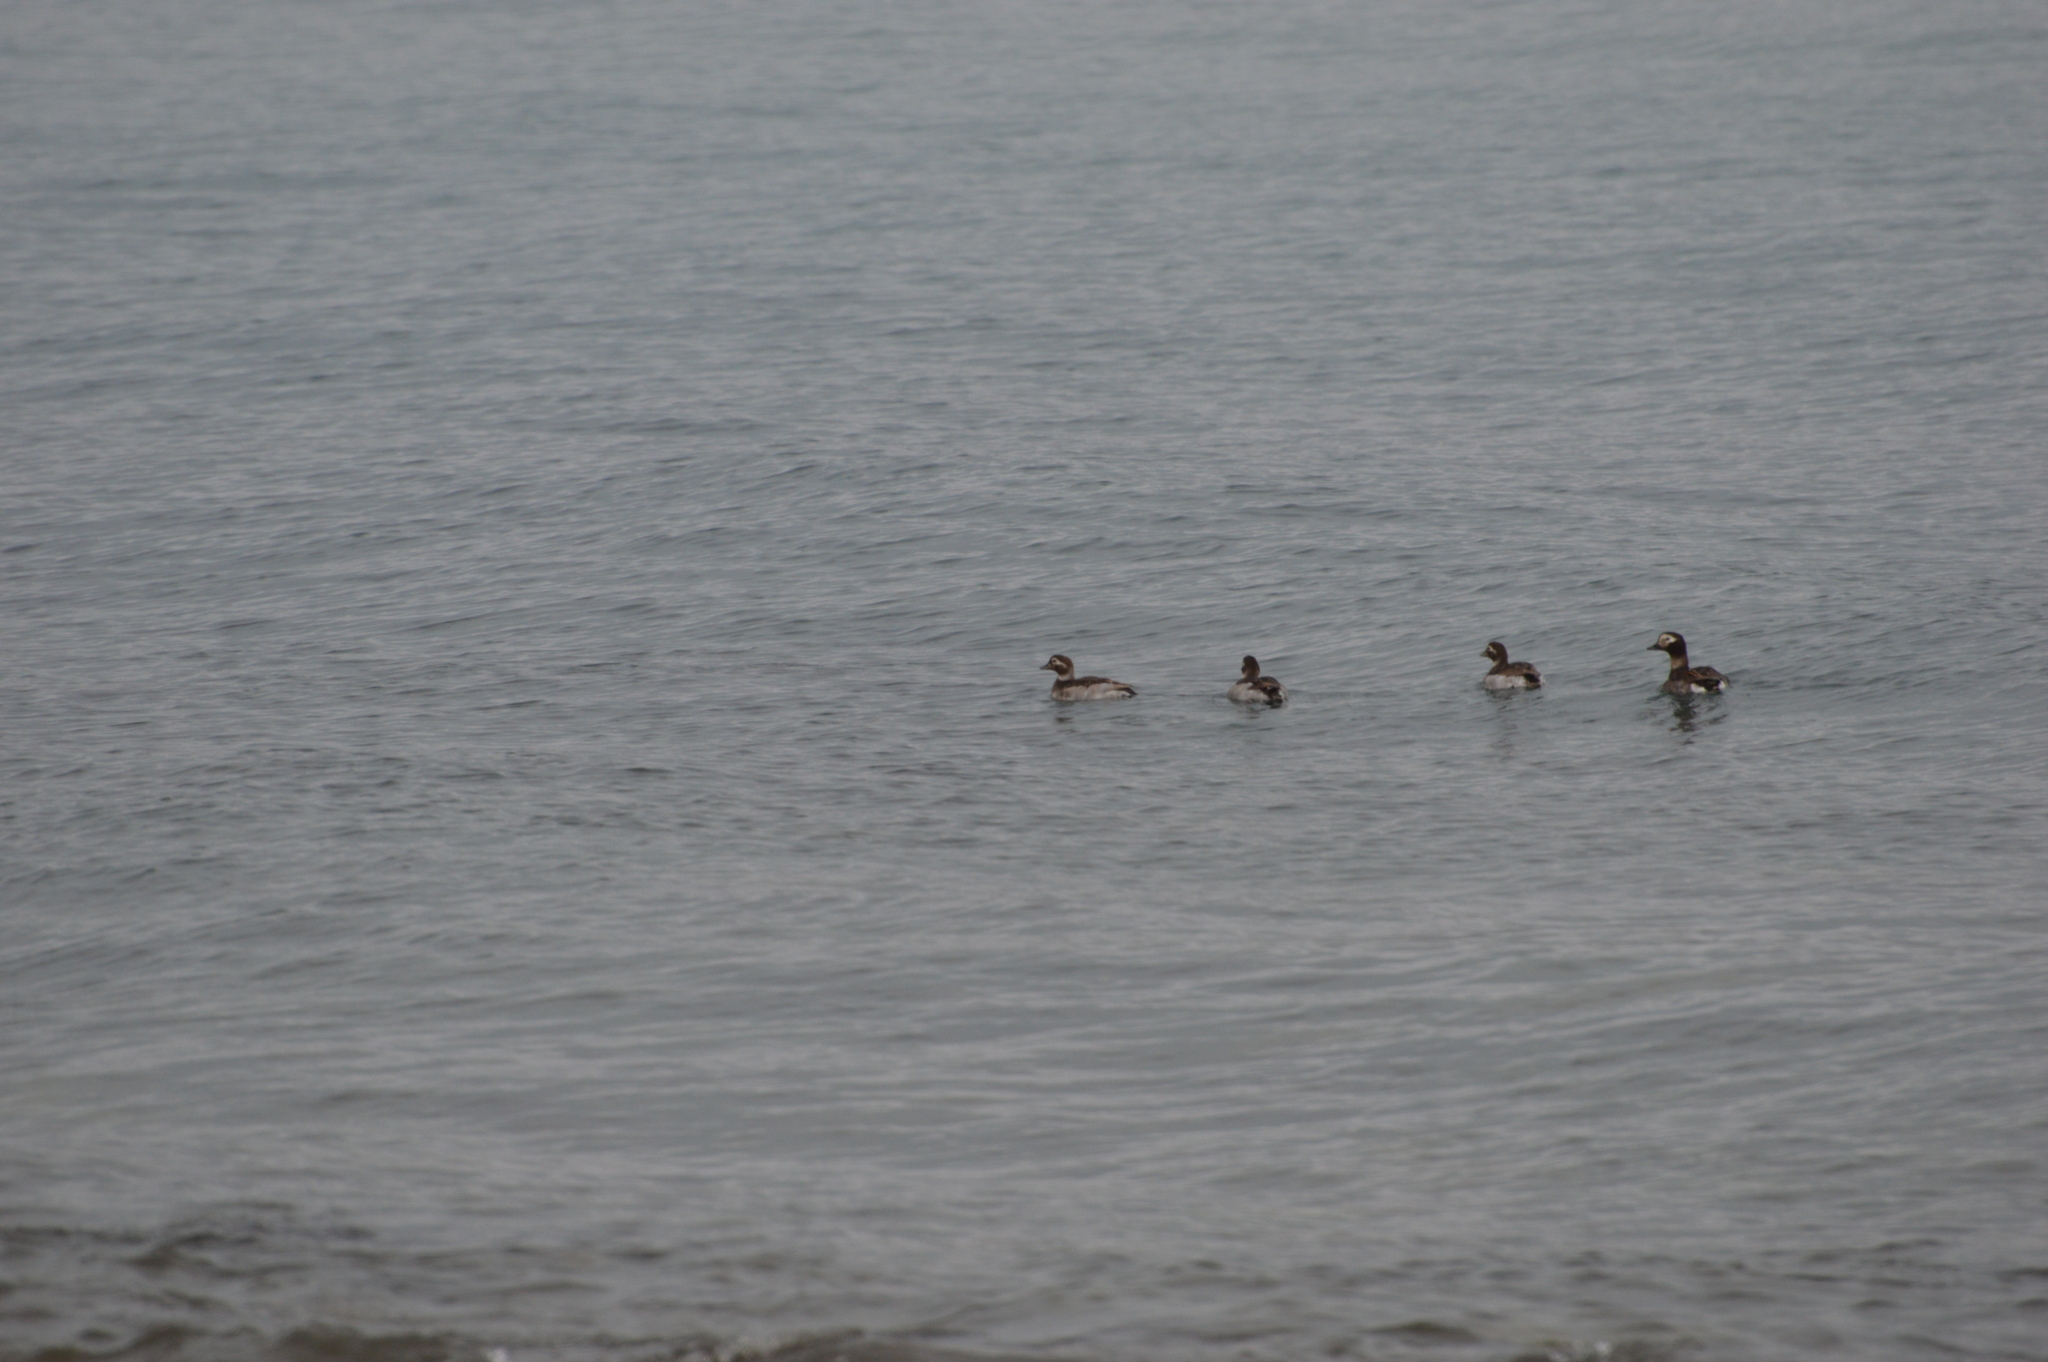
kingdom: Animalia
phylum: Chordata
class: Aves
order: Anseriformes
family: Anatidae
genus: Clangula
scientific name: Clangula hyemalis
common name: Long-tailed duck
